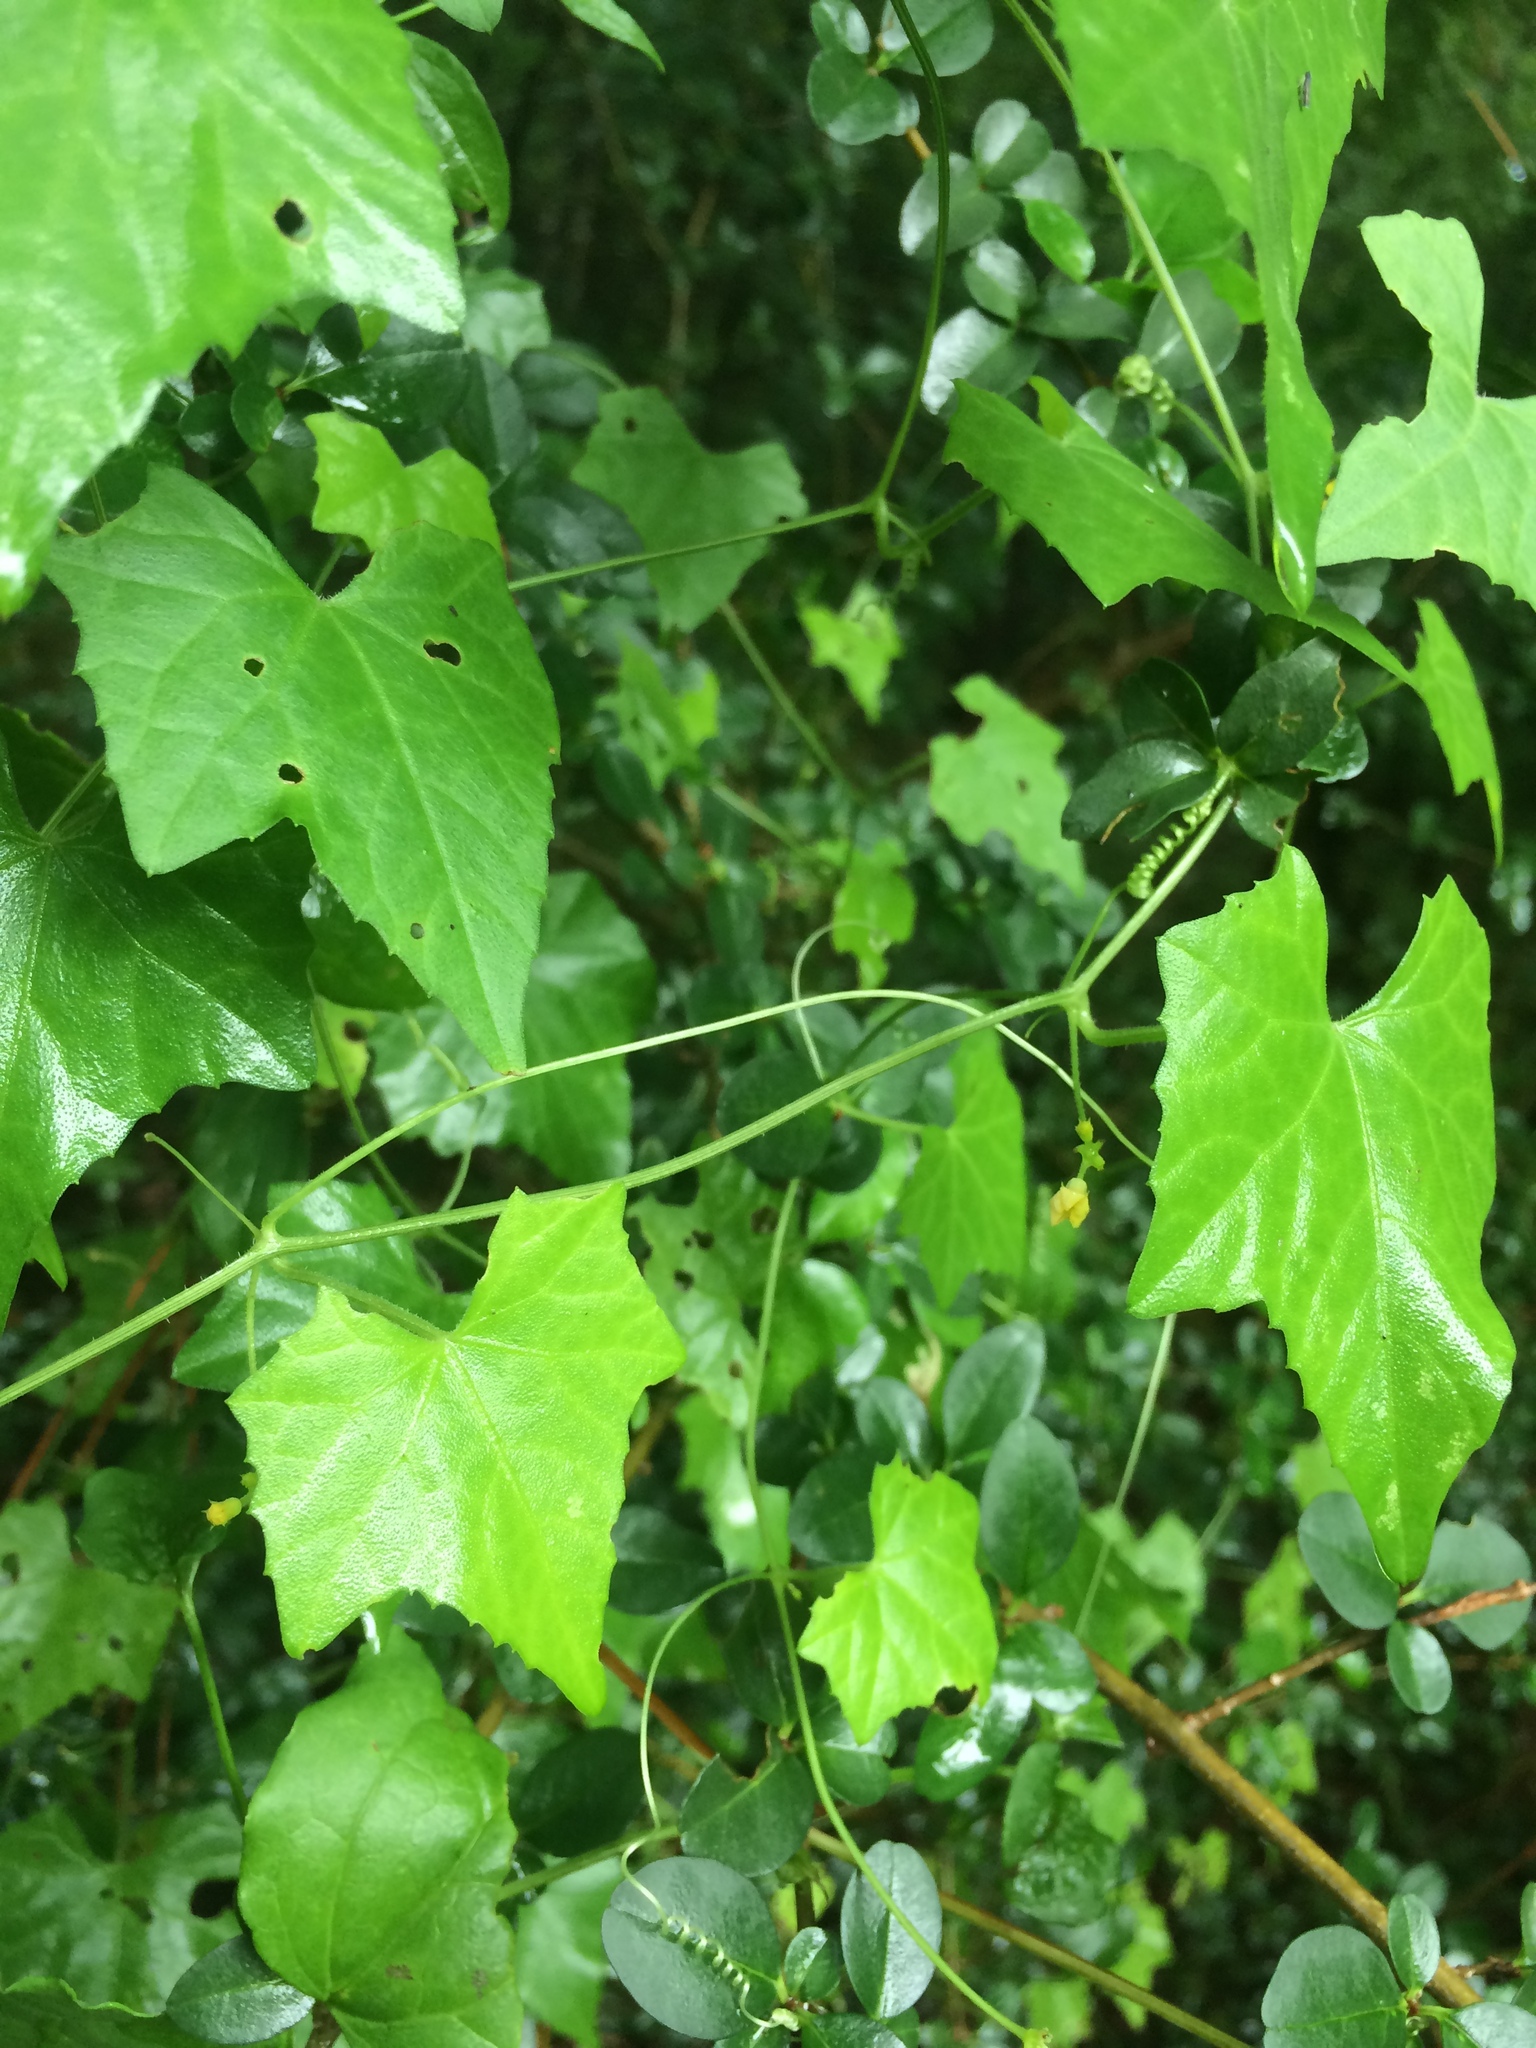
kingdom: Plantae
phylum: Tracheophyta
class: Magnoliopsida
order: Cucurbitales
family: Cucurbitaceae
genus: Melothria
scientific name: Melothria pendula
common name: Creeping-cucumber
